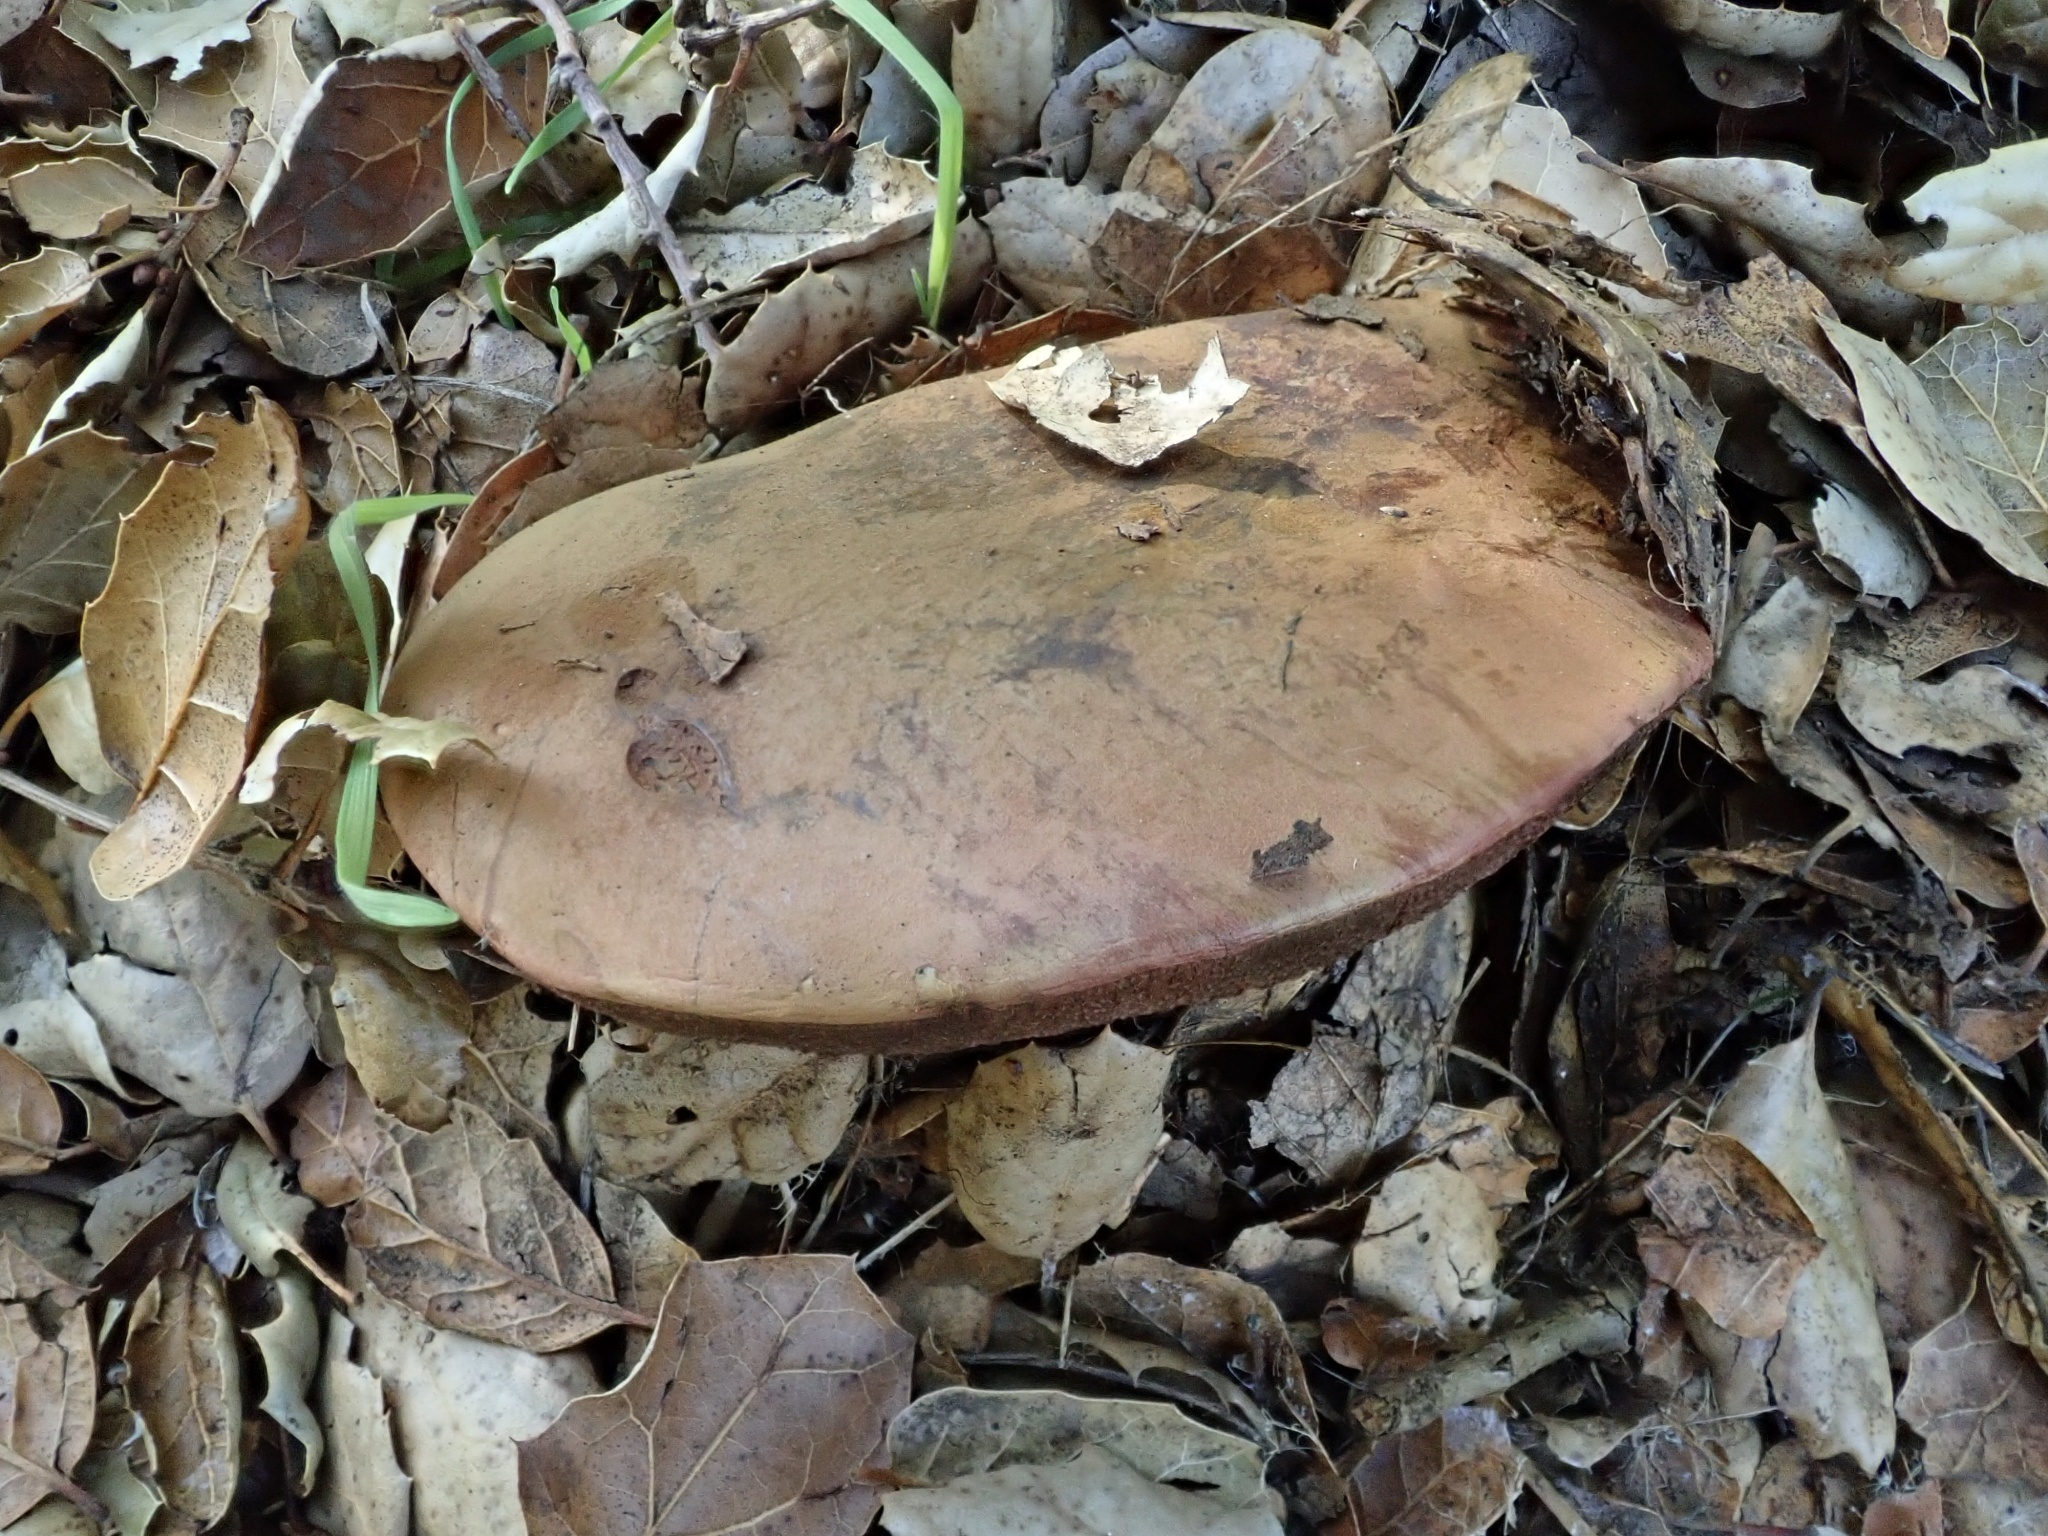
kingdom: Fungi
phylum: Basidiomycota
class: Agaricomycetes
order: Boletales
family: Boletaceae
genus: Suillellus
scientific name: Suillellus amygdalinus
